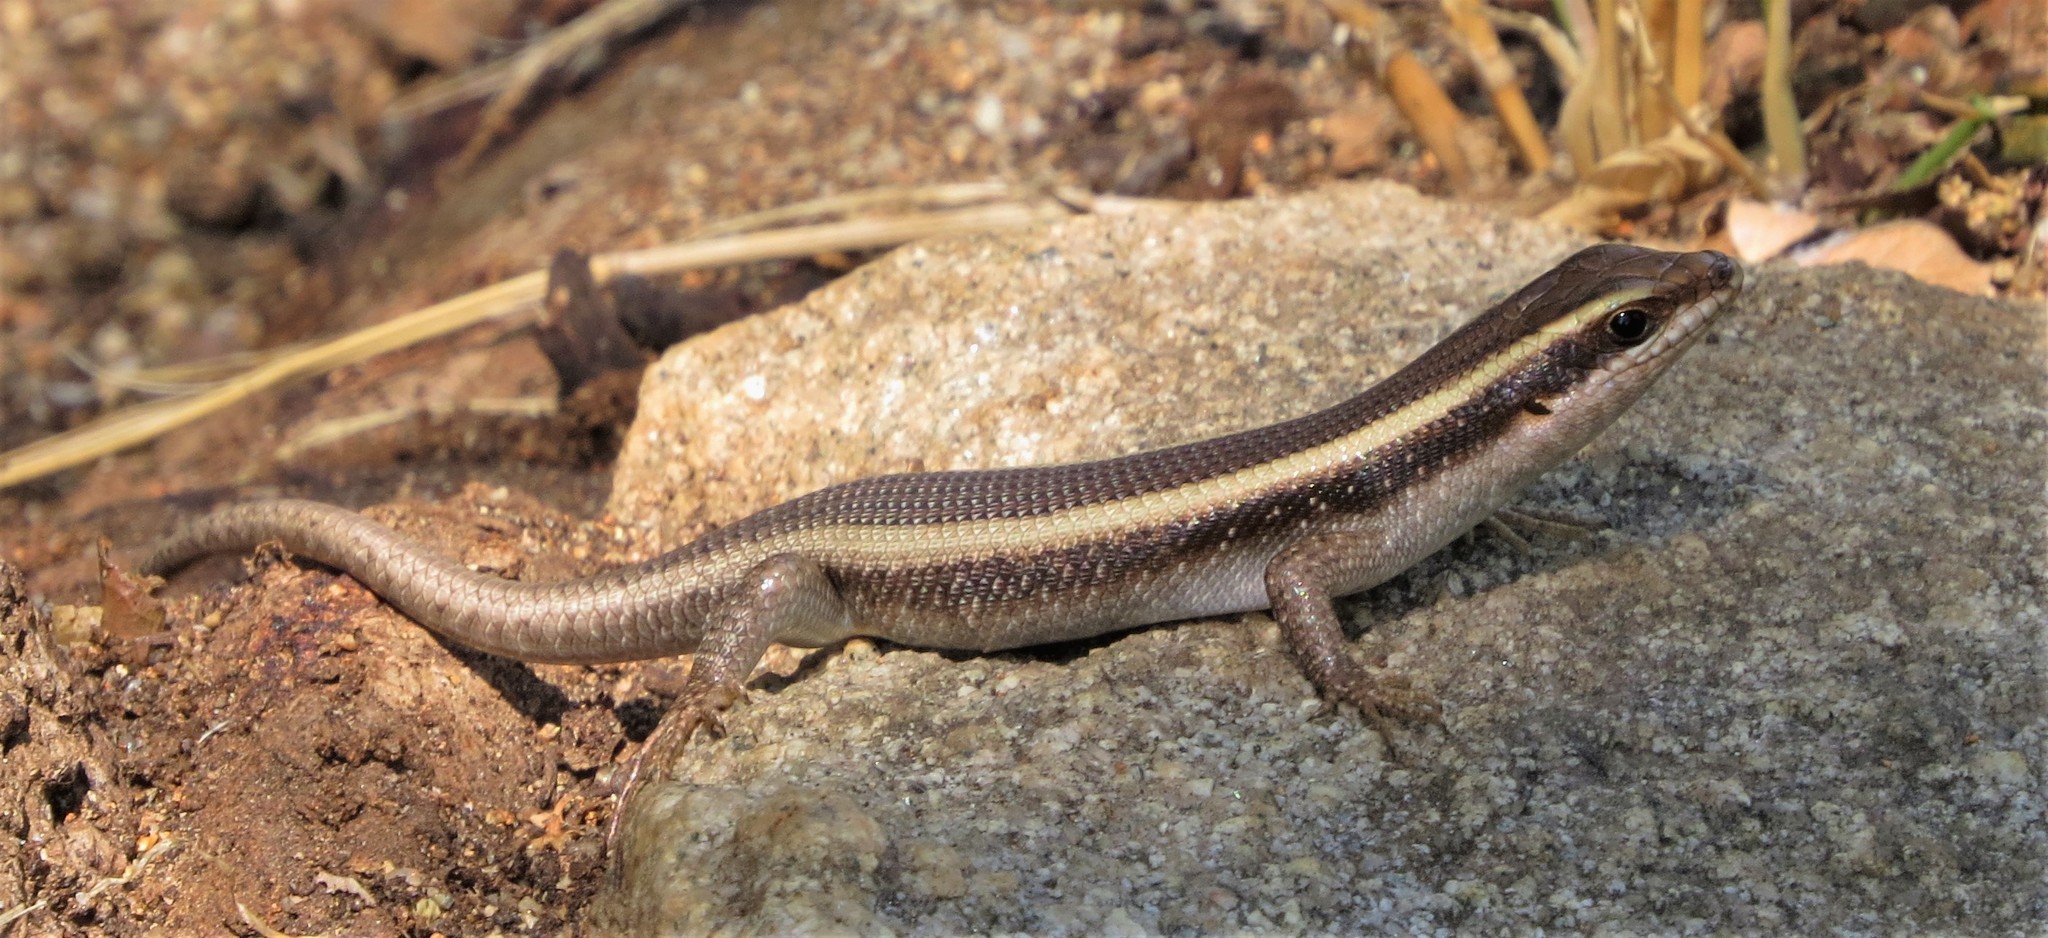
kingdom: Animalia
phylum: Chordata
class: Squamata
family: Scincidae
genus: Trachylepis
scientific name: Trachylepis striata
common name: African striped mabuya
